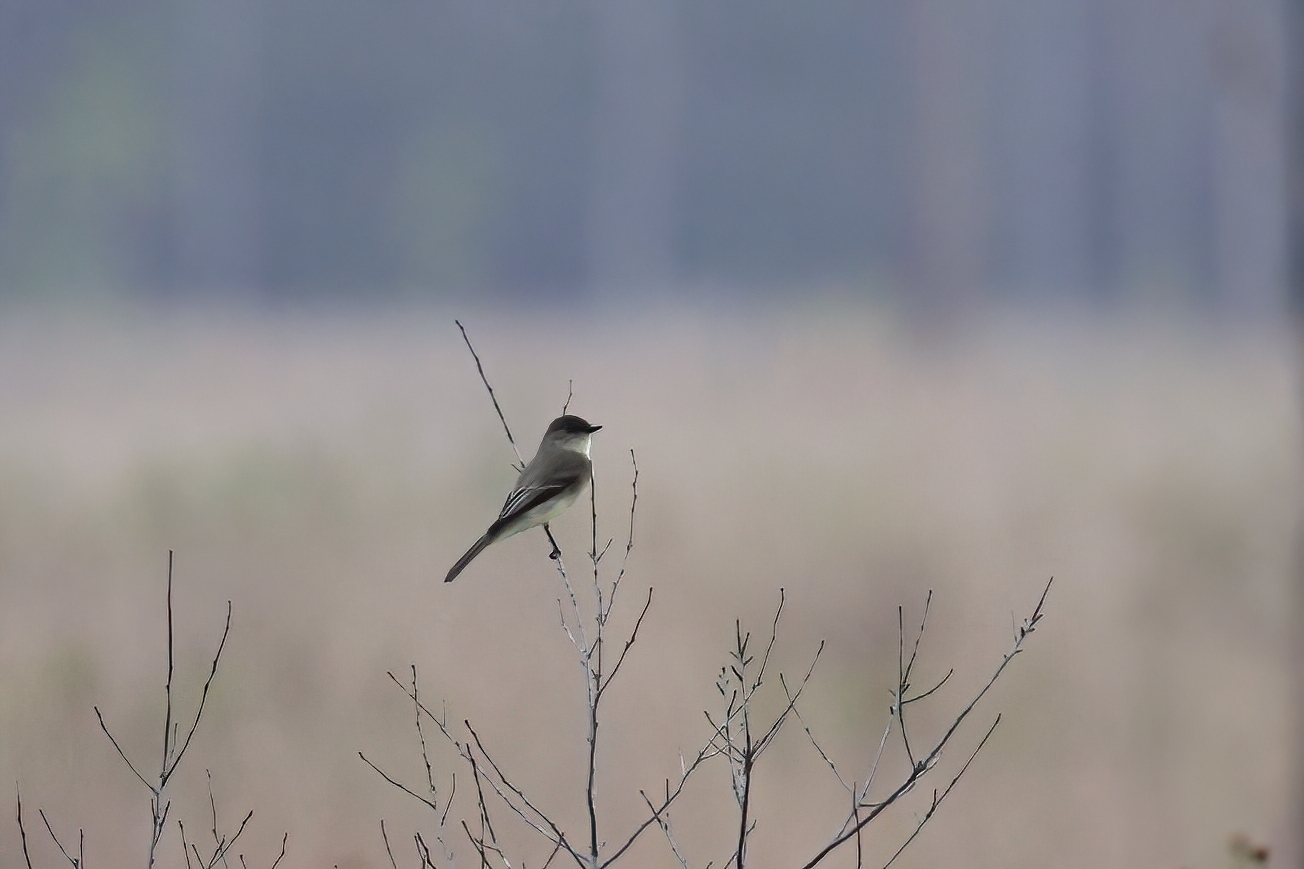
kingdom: Animalia
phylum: Chordata
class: Aves
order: Passeriformes
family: Tyrannidae
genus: Sayornis
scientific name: Sayornis phoebe
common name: Eastern phoebe
